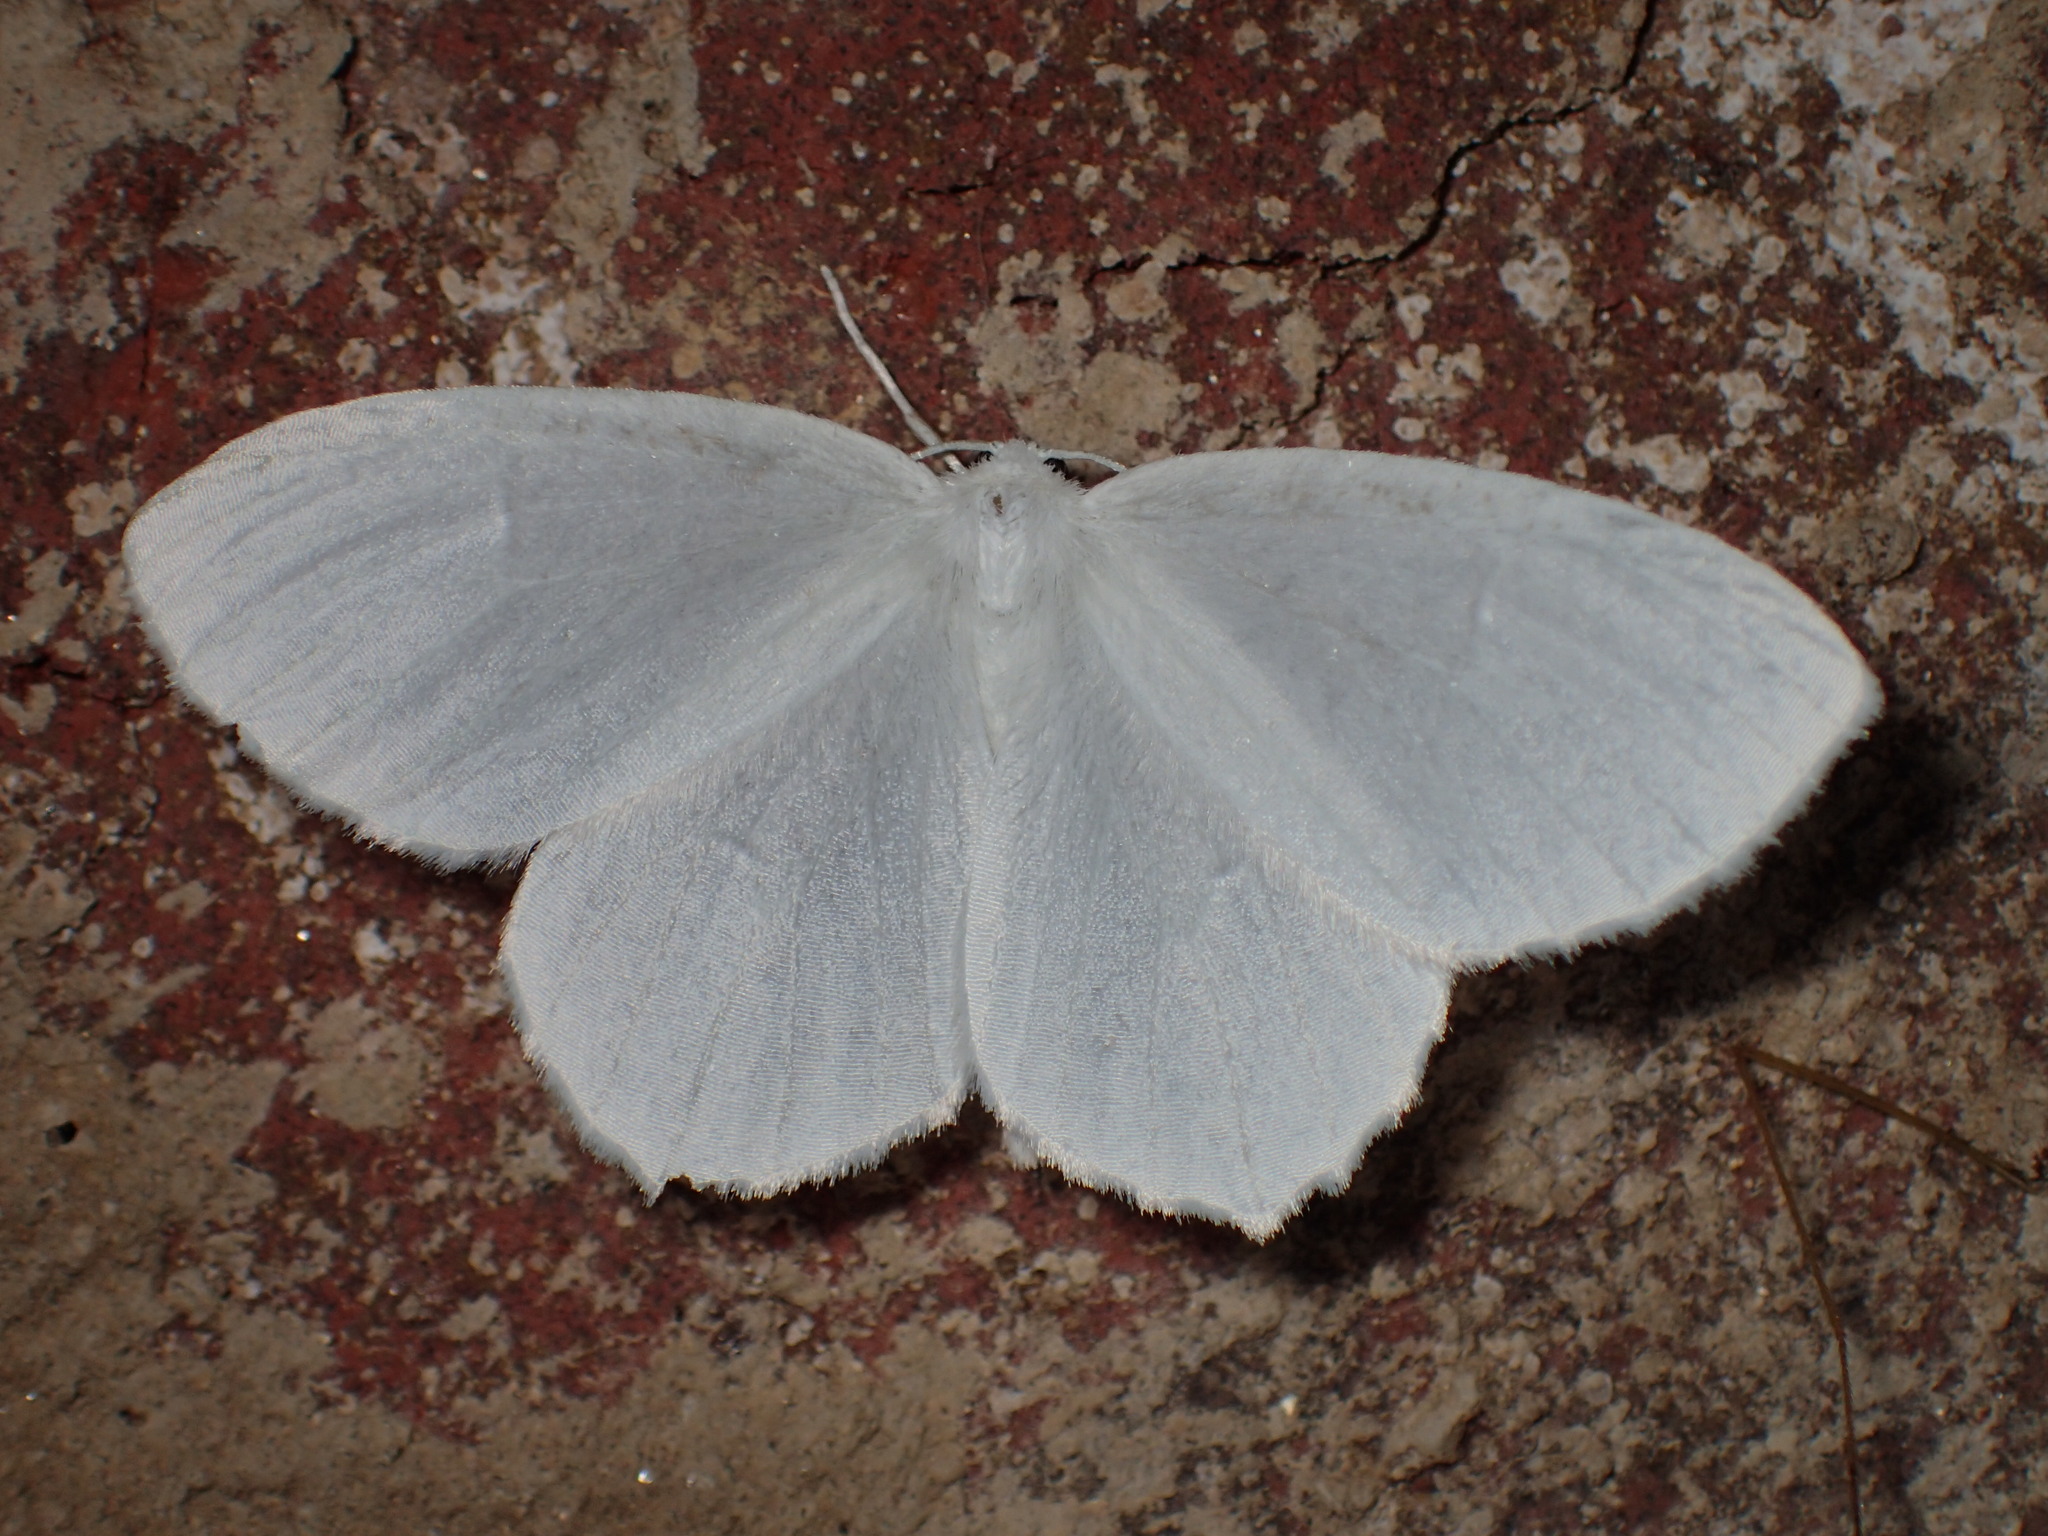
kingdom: Animalia
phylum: Arthropoda
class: Insecta
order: Lepidoptera
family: Geometridae
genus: Eugonobapta
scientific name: Eugonobapta nivosaria
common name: Snowy geometer
